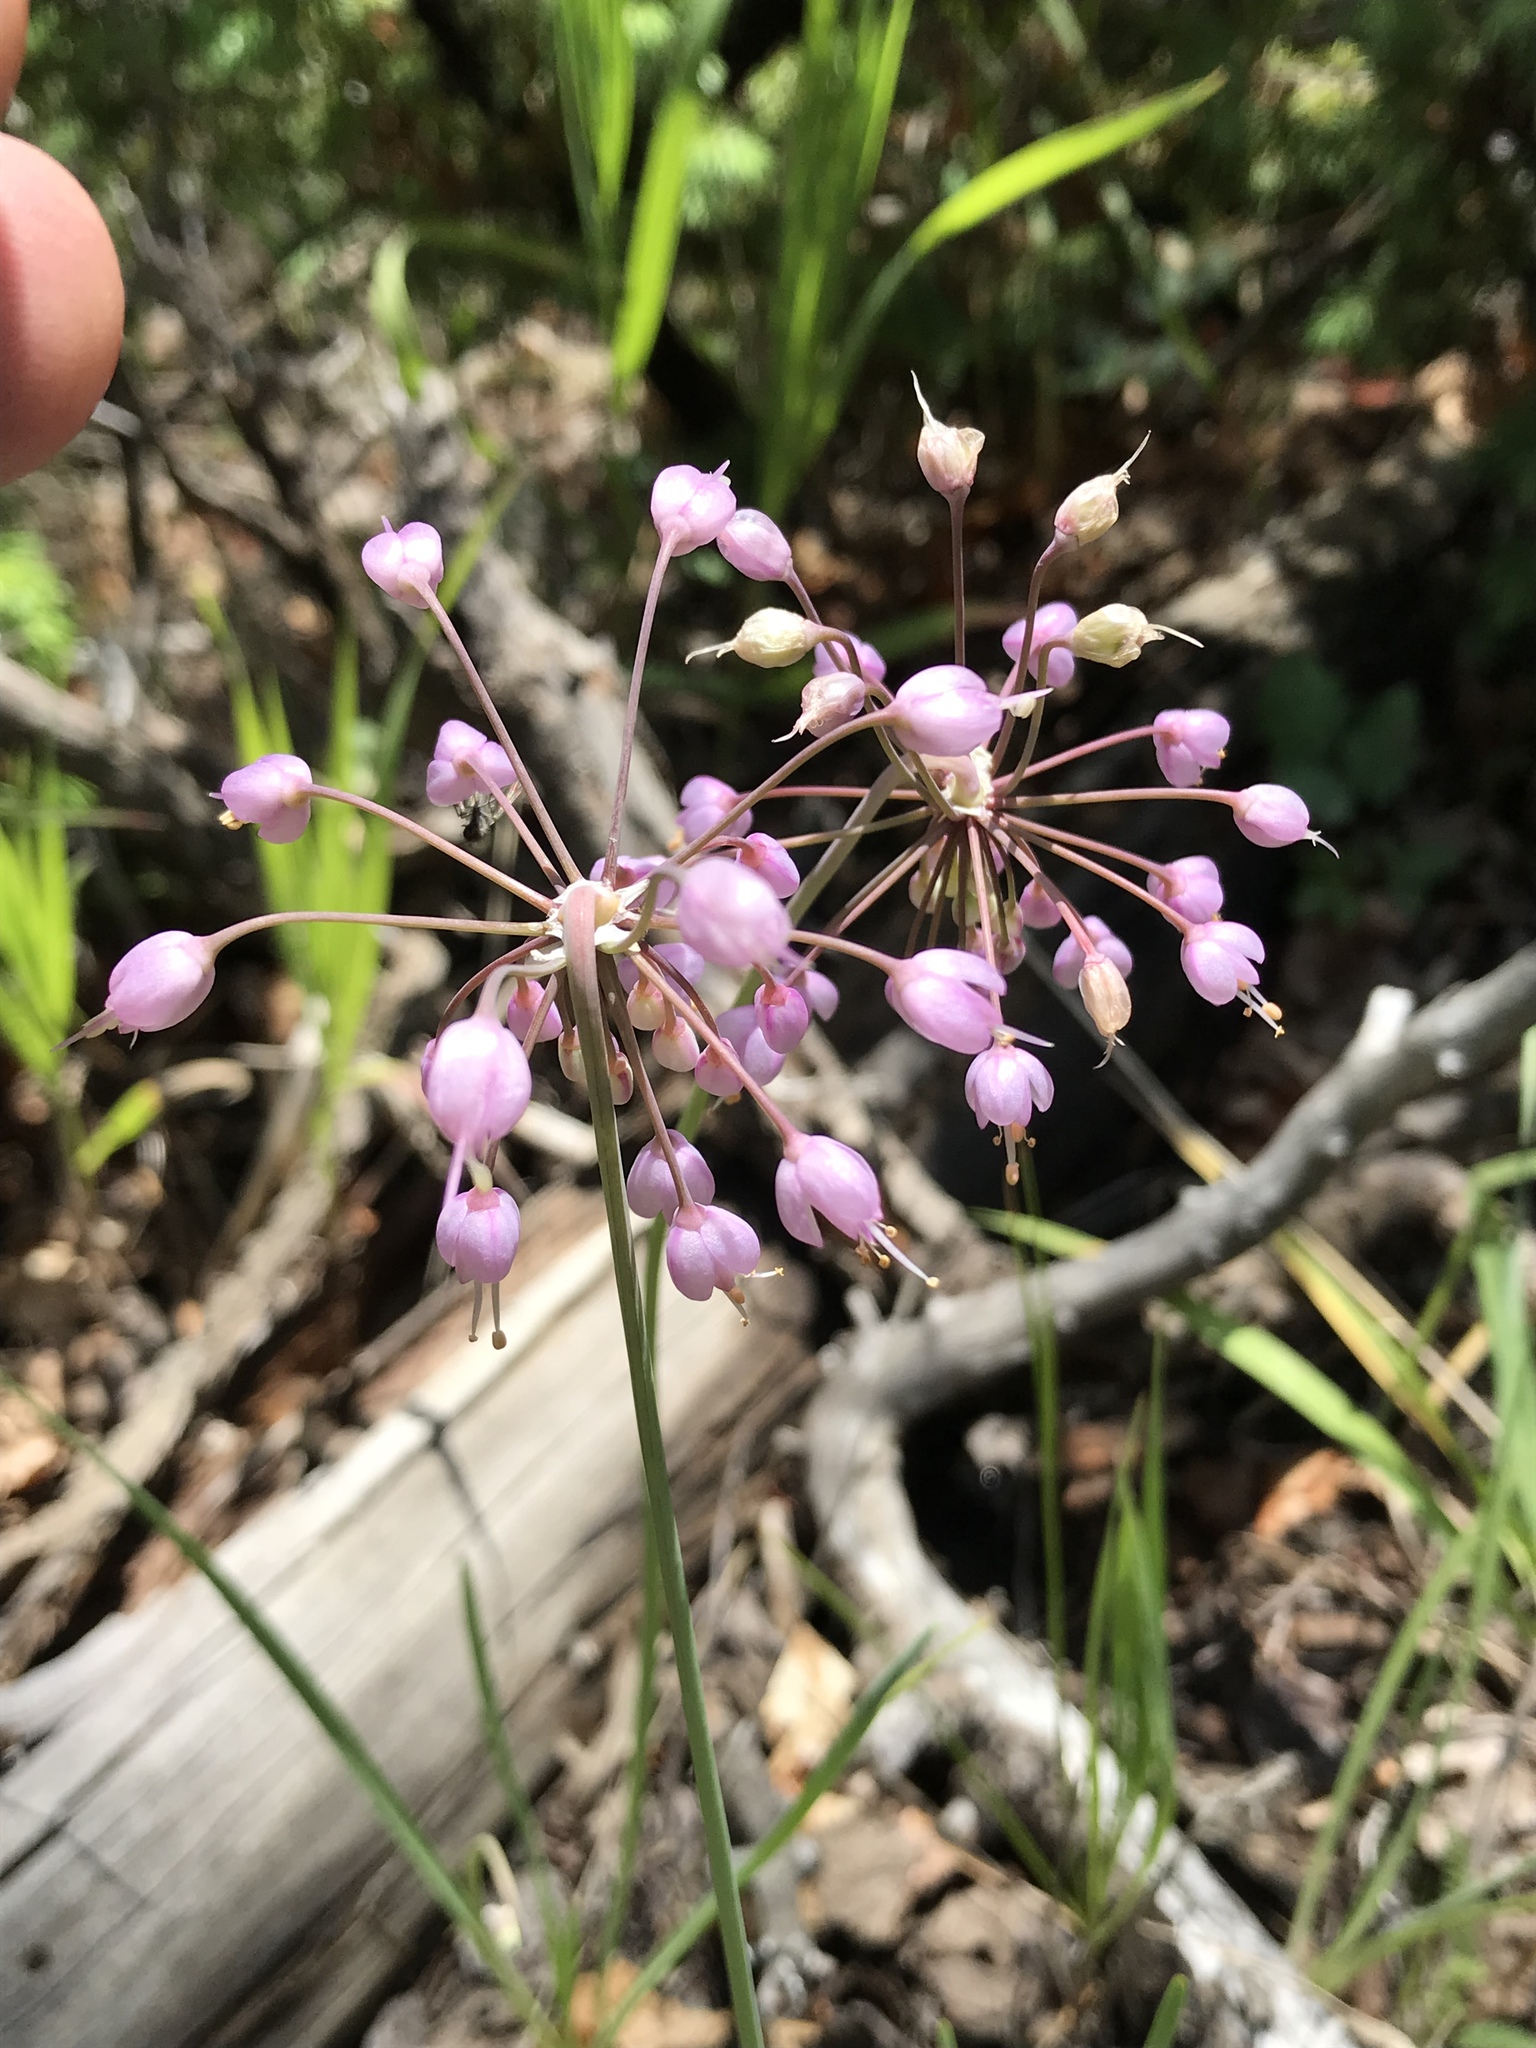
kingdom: Plantae
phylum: Tracheophyta
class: Liliopsida
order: Asparagales
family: Amaryllidaceae
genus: Allium
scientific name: Allium cernuum
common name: Nodding onion
